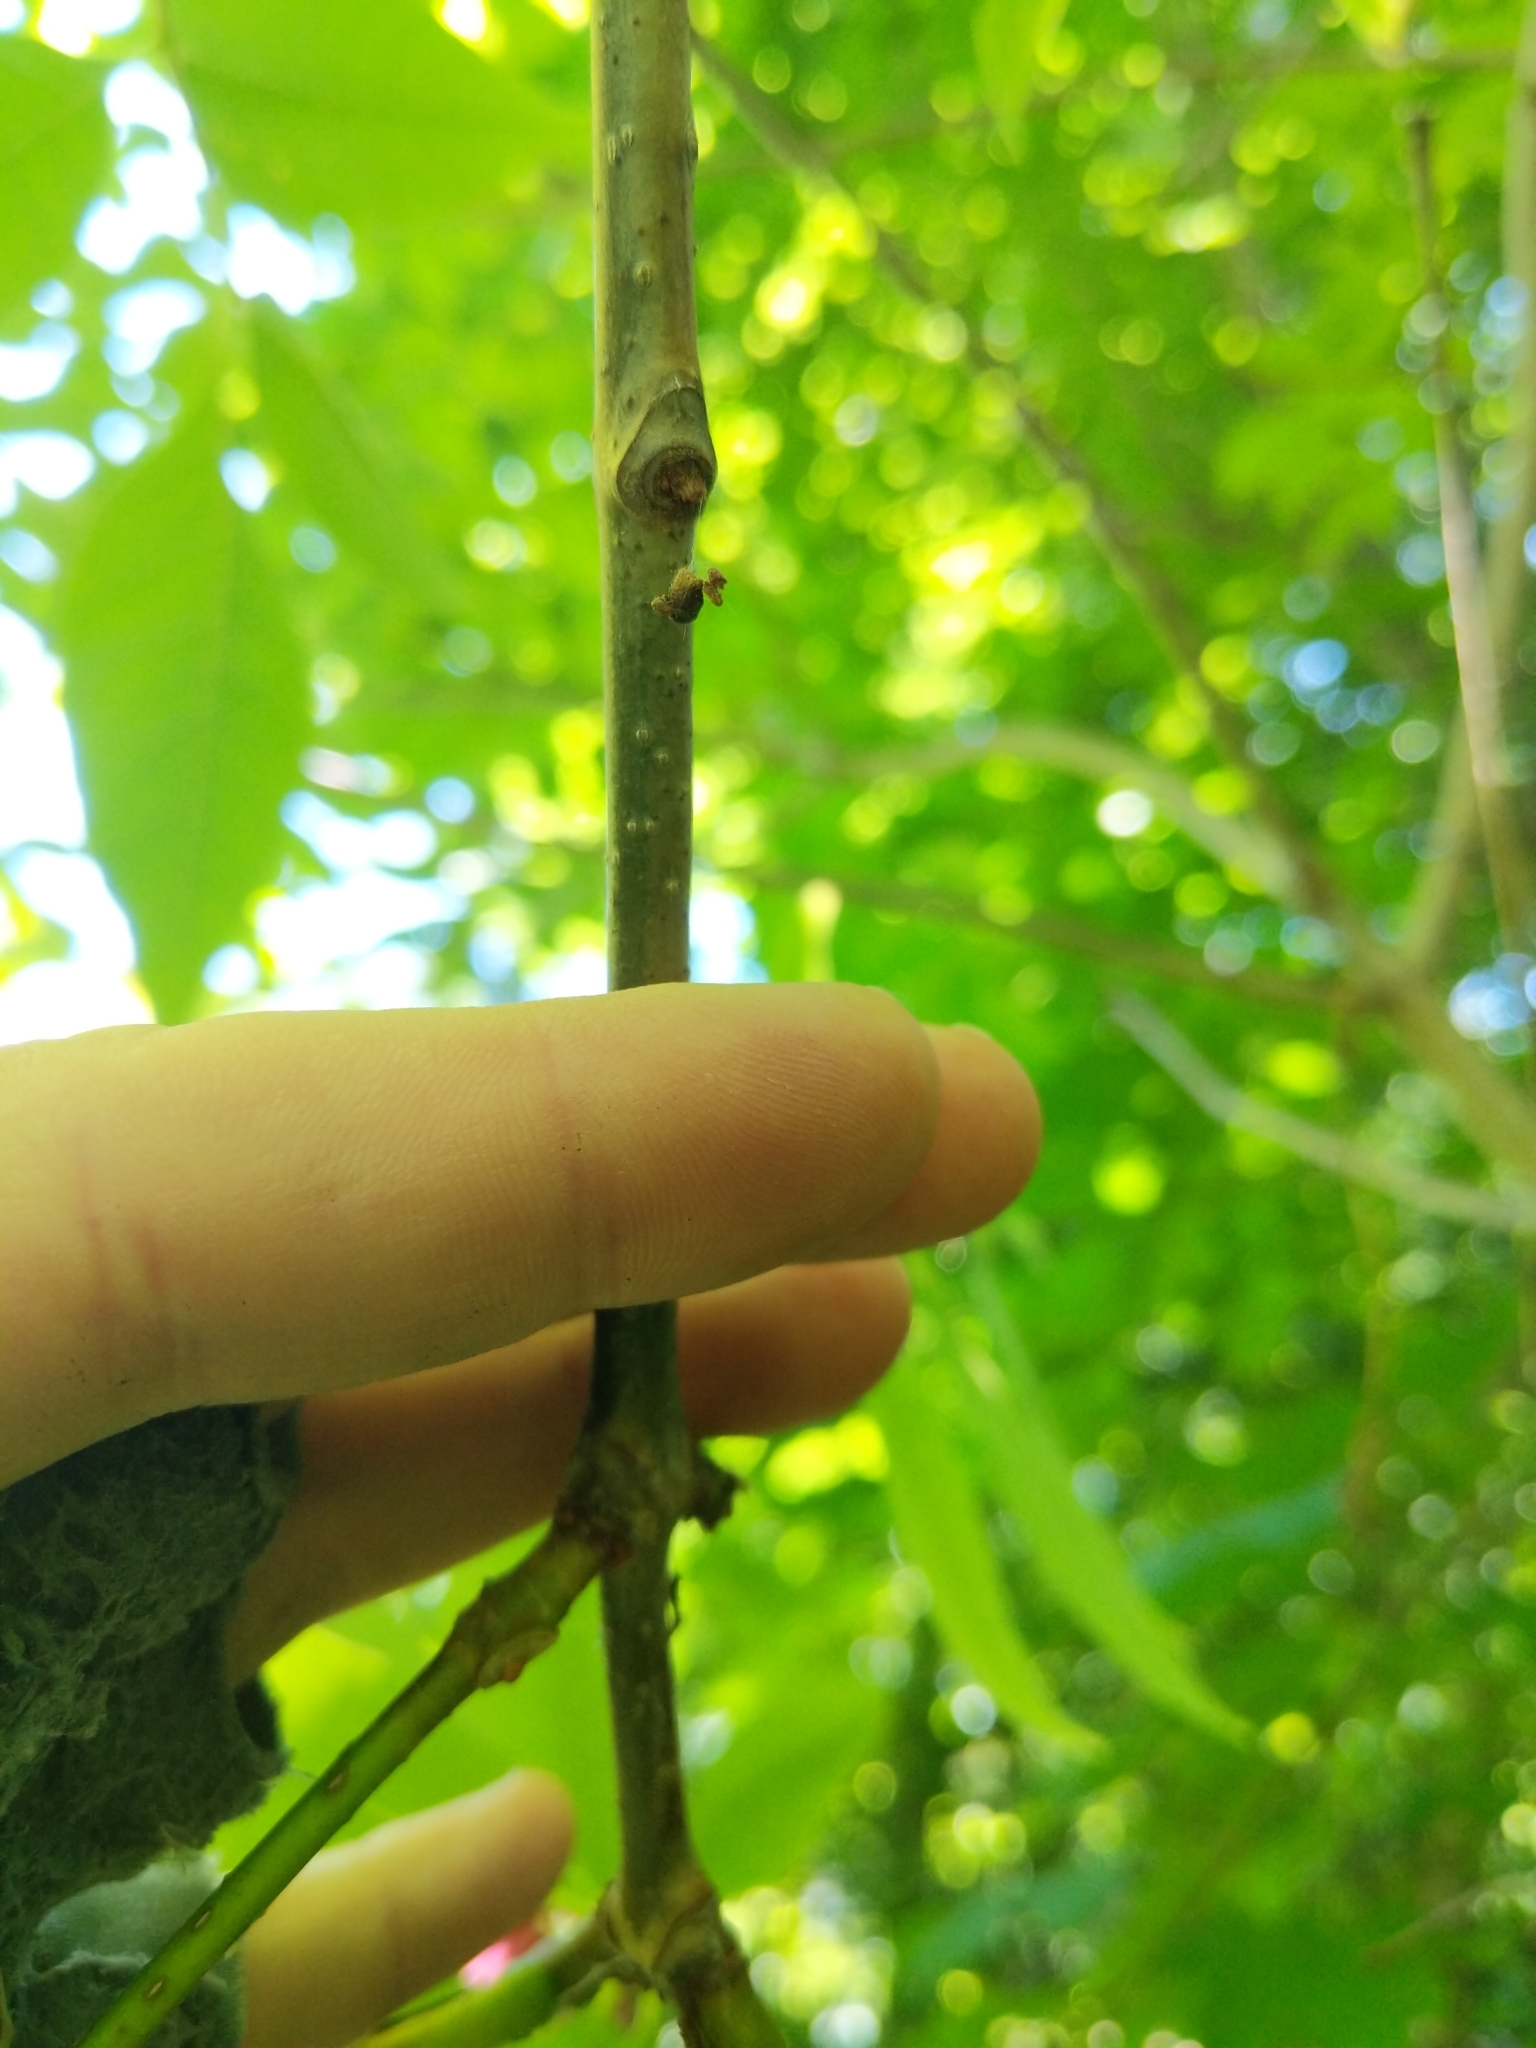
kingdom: Plantae
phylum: Tracheophyta
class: Magnoliopsida
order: Sapindales
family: Rutaceae
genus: Phellodendron
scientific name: Phellodendron amurense
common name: Amur corktree
